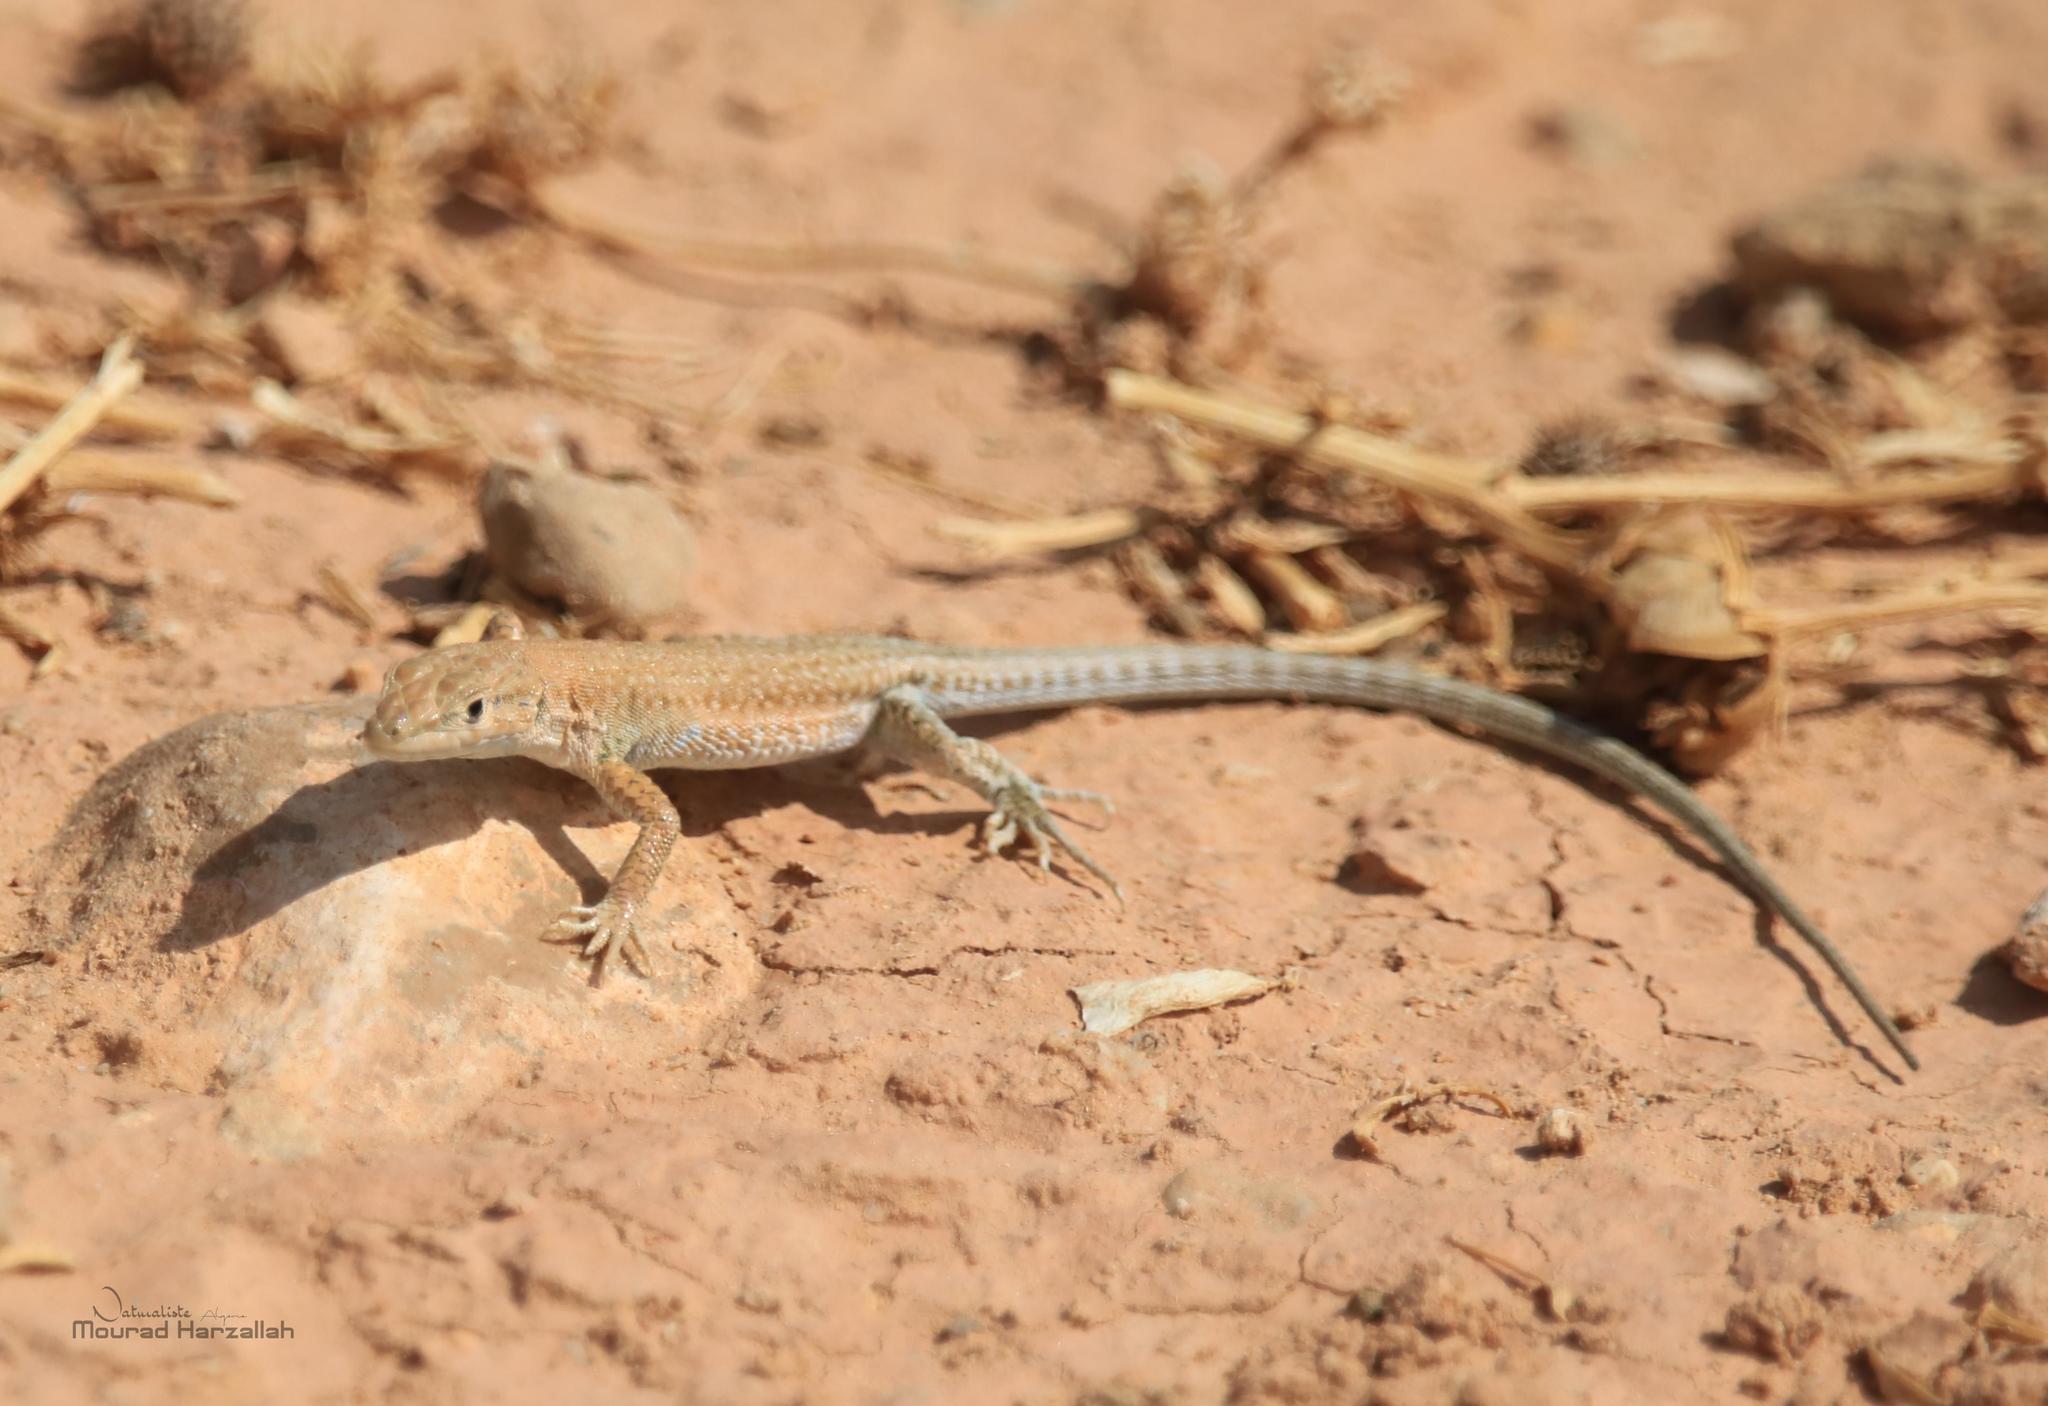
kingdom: Animalia
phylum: Chordata
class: Squamata
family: Lacertidae
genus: Mesalina
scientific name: Mesalina guttulata
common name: Desert lacerta
